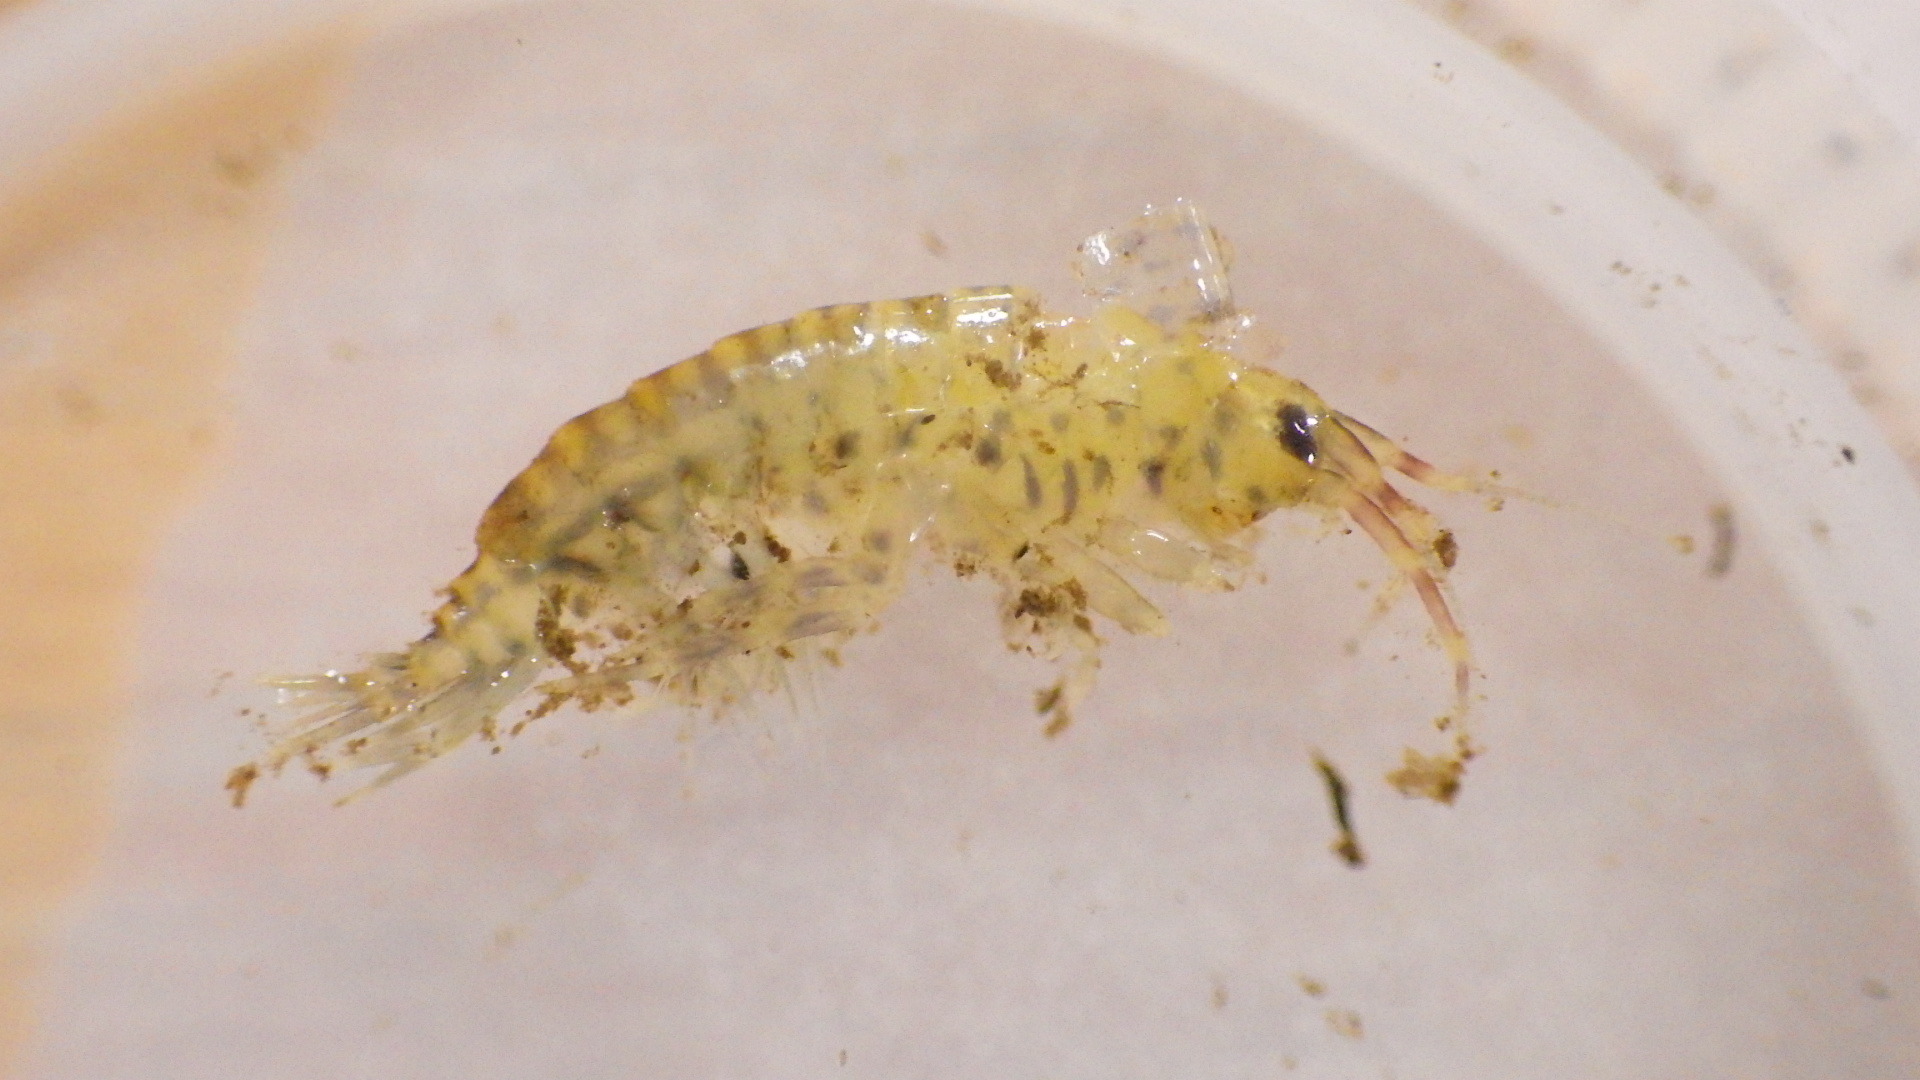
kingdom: Animalia
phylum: Arthropoda
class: Malacostraca
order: Amphipoda
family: Gammaridae
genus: Gammarus
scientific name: Gammarus fasciatus
